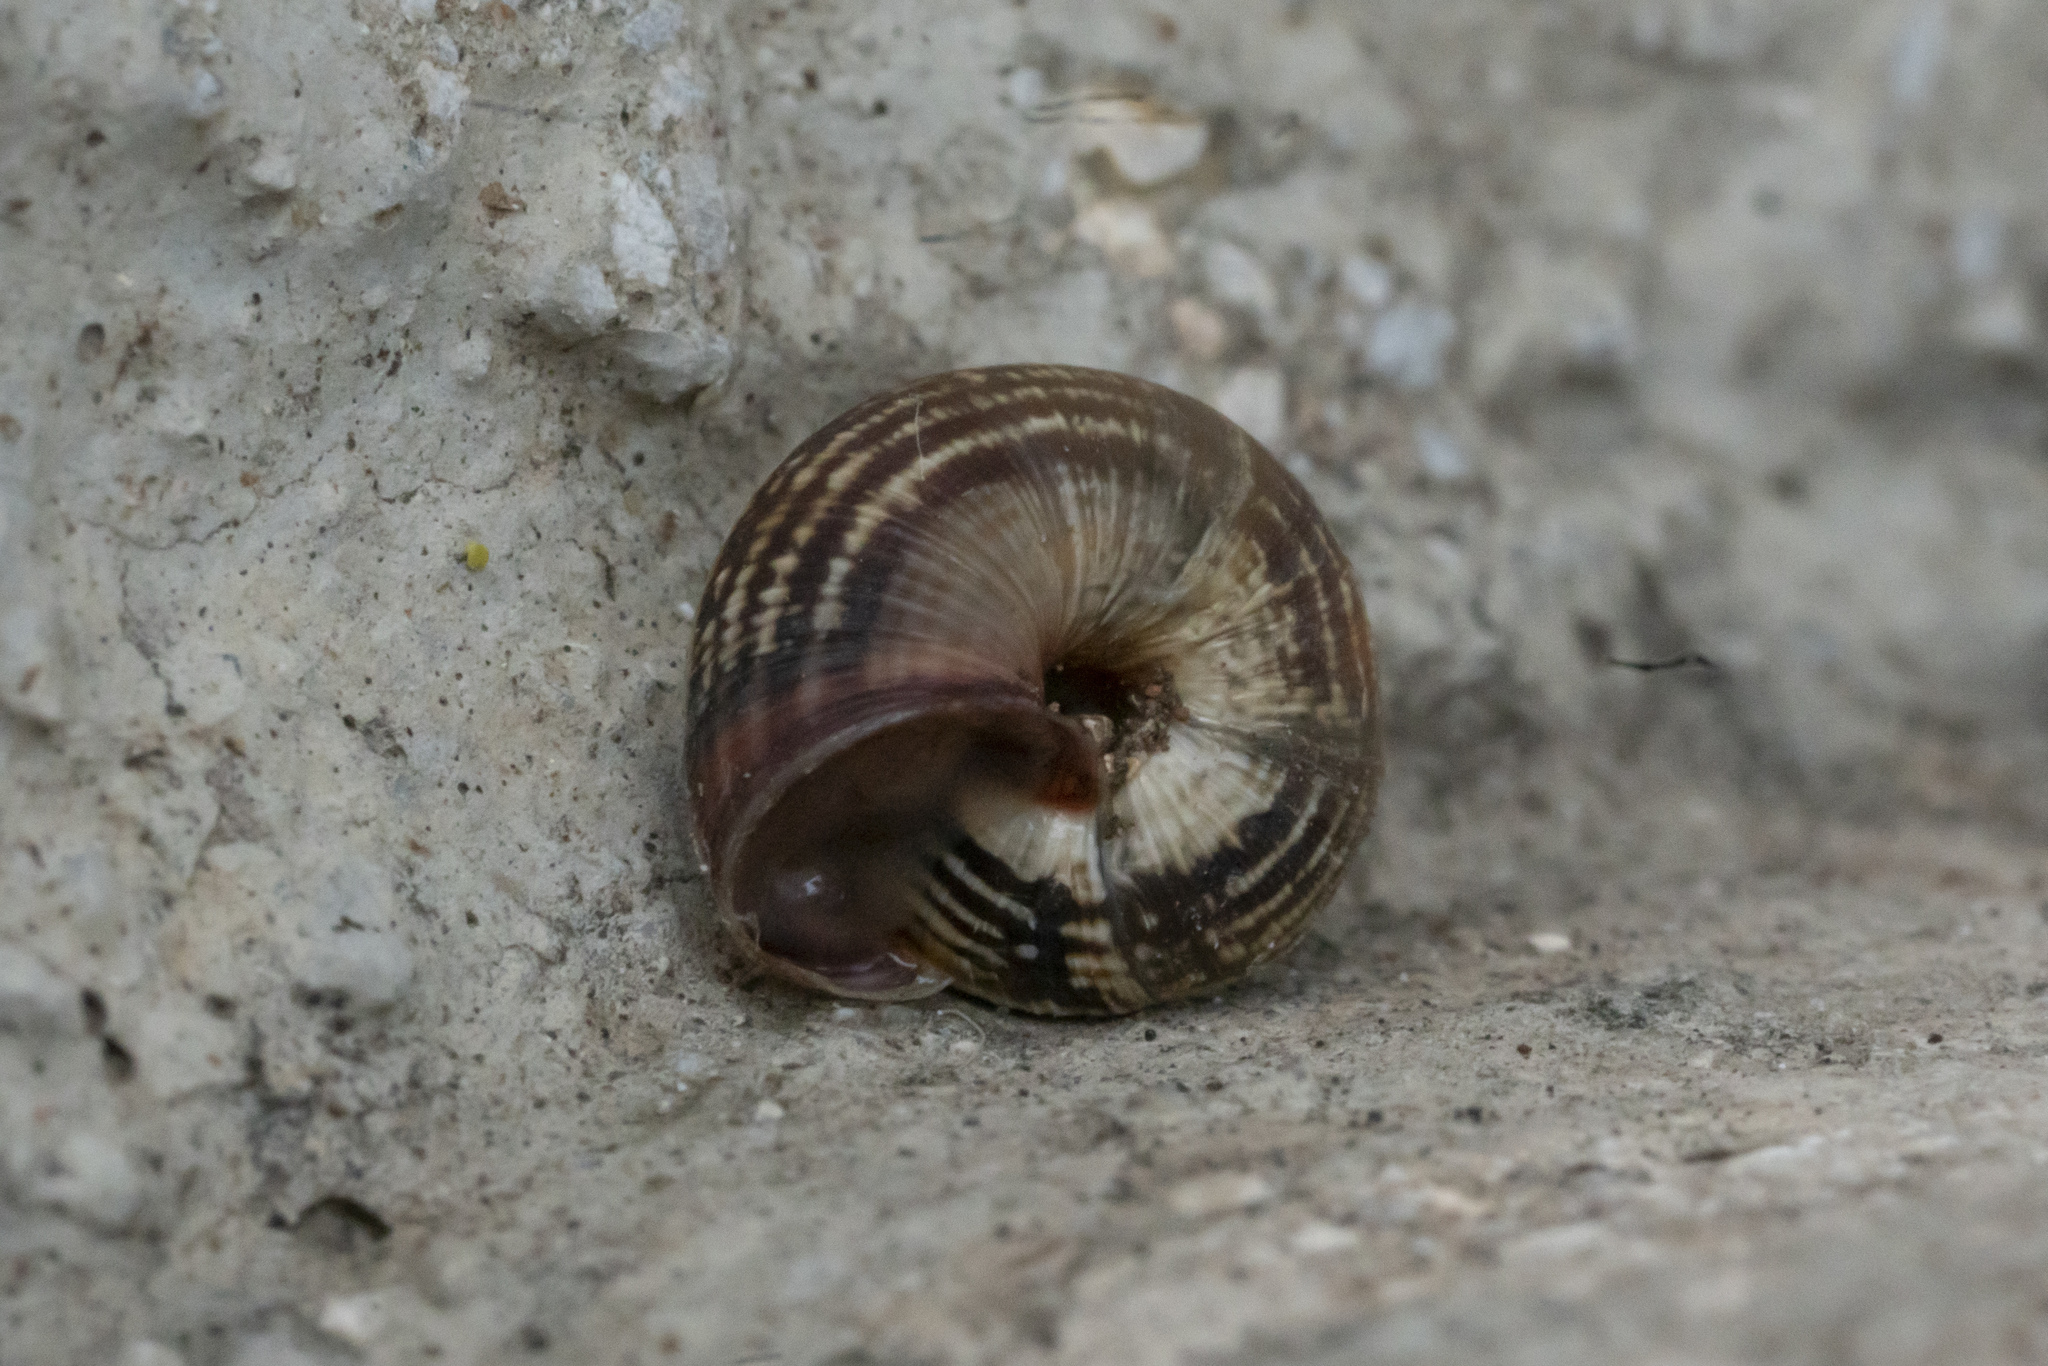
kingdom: Animalia
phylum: Mollusca
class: Gastropoda
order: Stylommatophora
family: Geomitridae
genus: Cernuella
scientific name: Cernuella virgata
